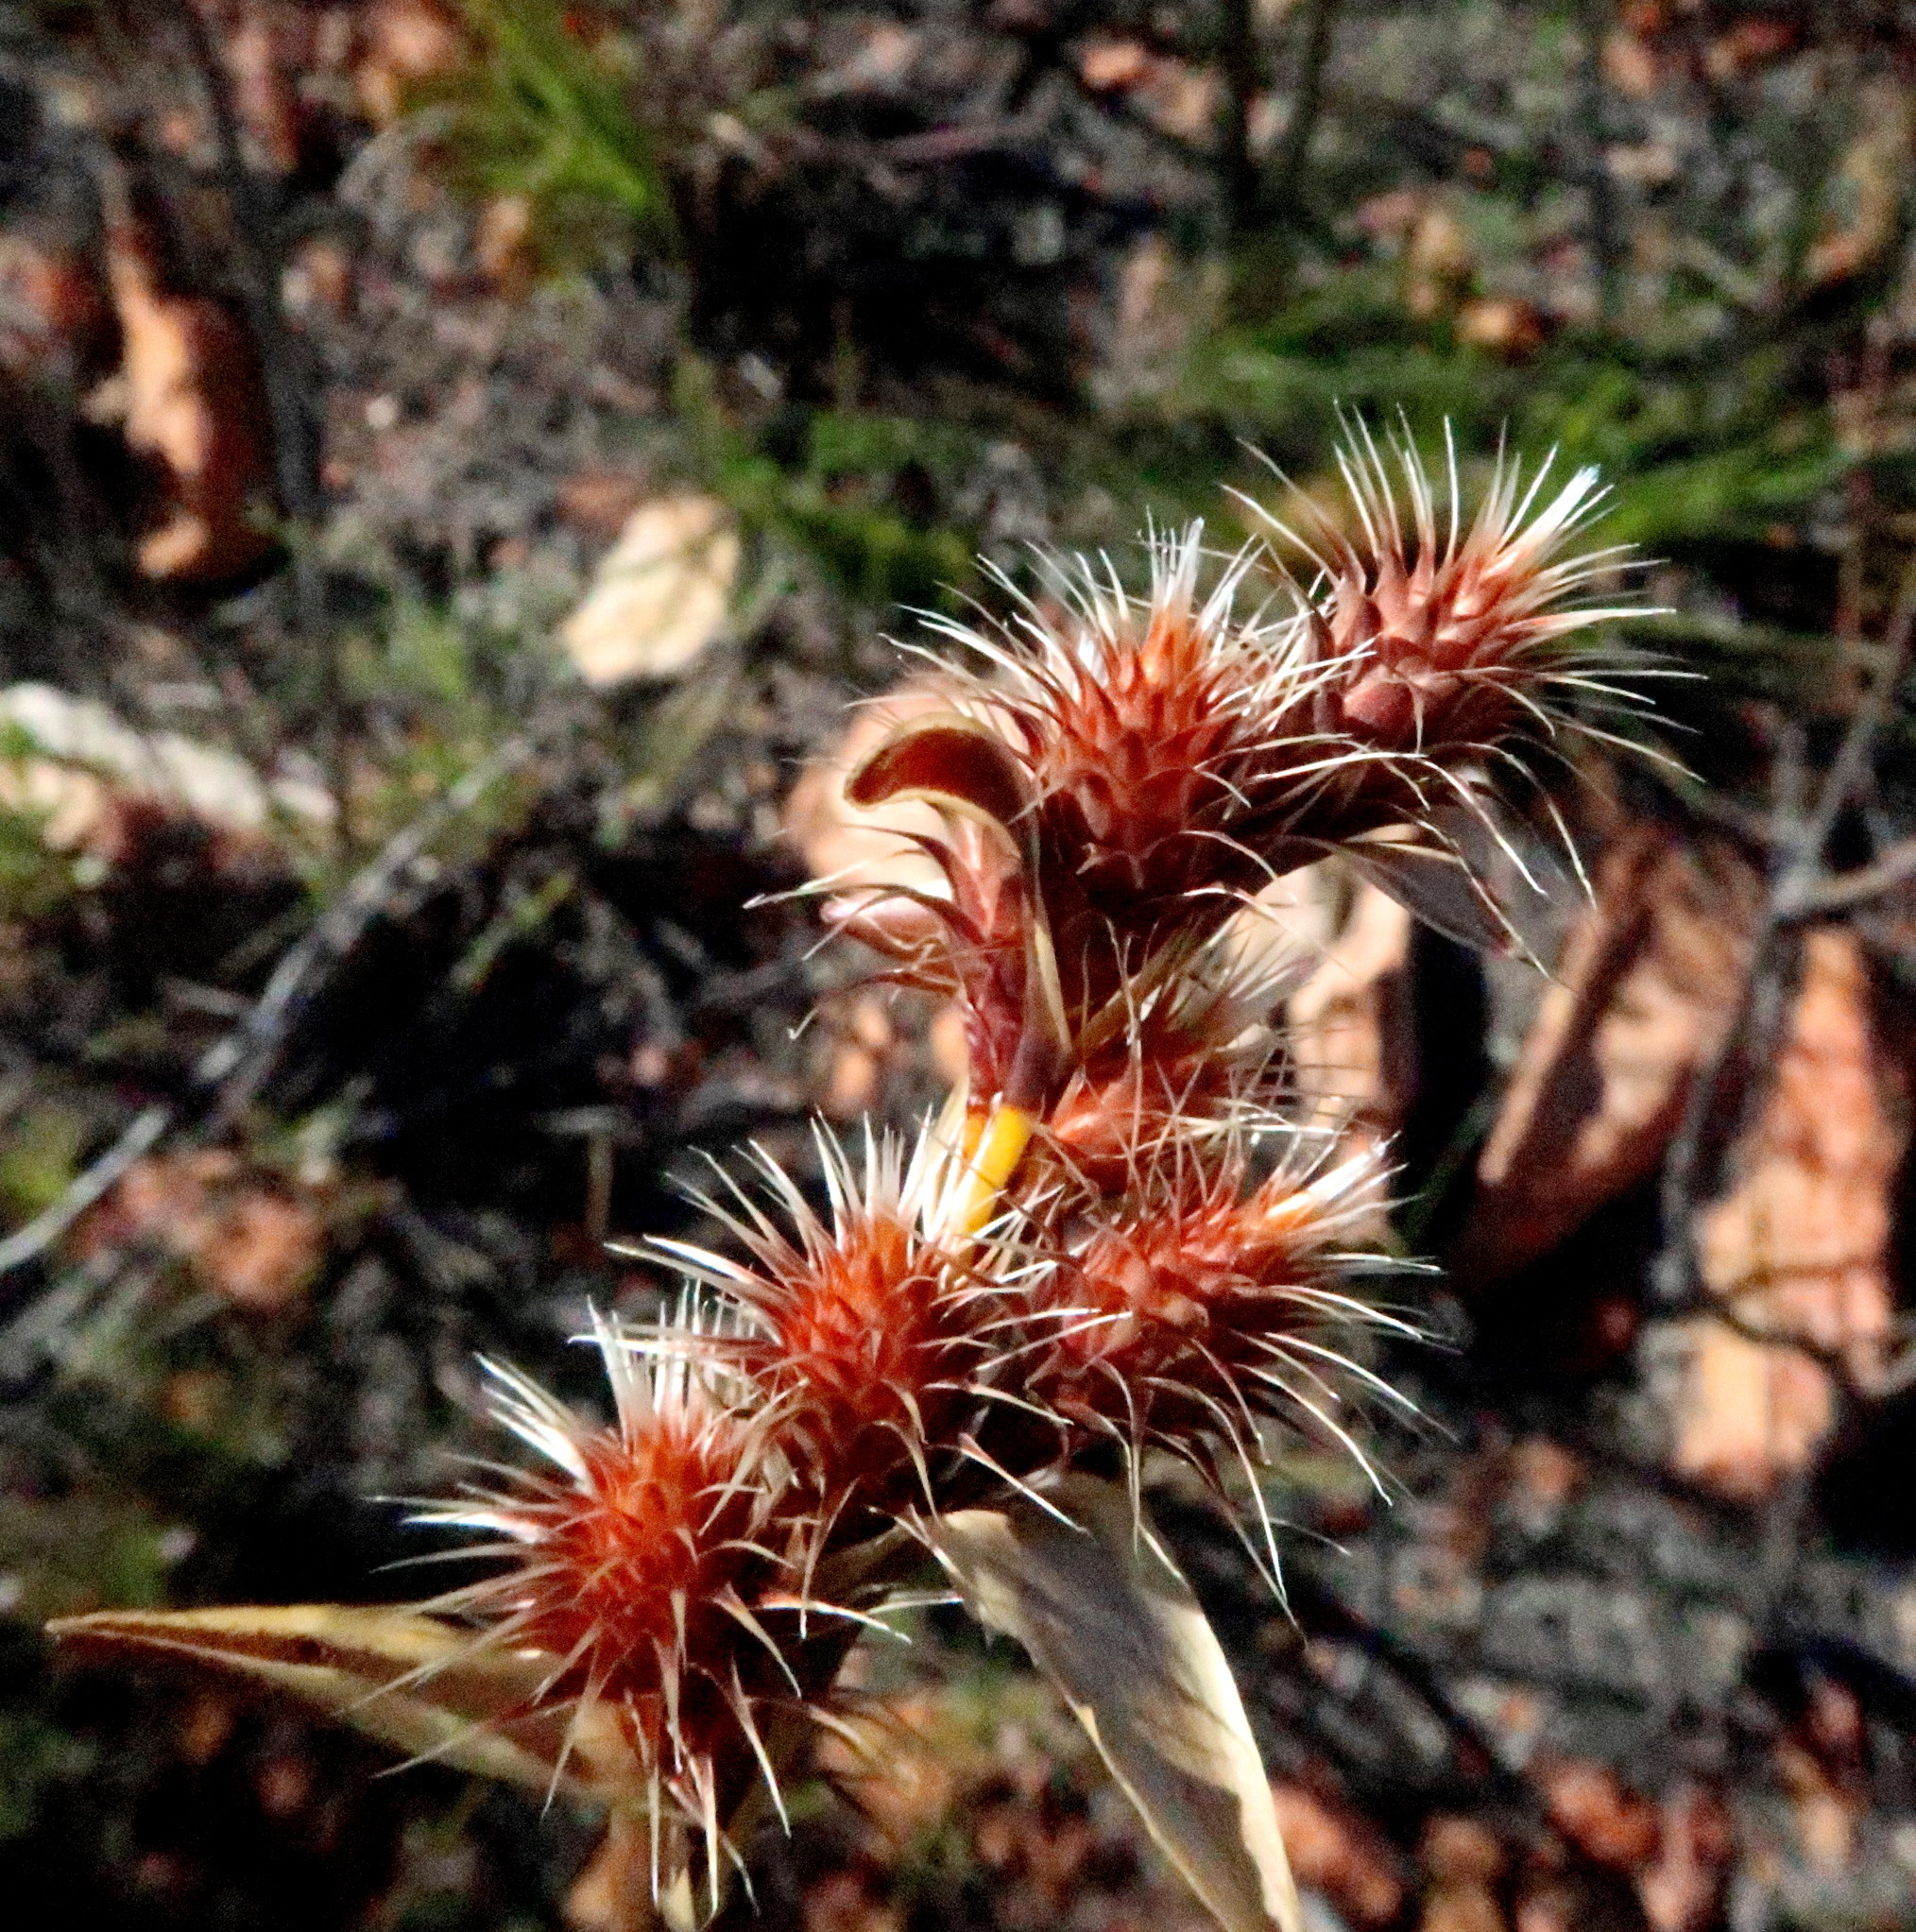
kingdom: Plantae
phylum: Tracheophyta
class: Liliopsida
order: Poales
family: Restionaceae
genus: Hypodiscus
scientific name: Hypodiscus aristatus
